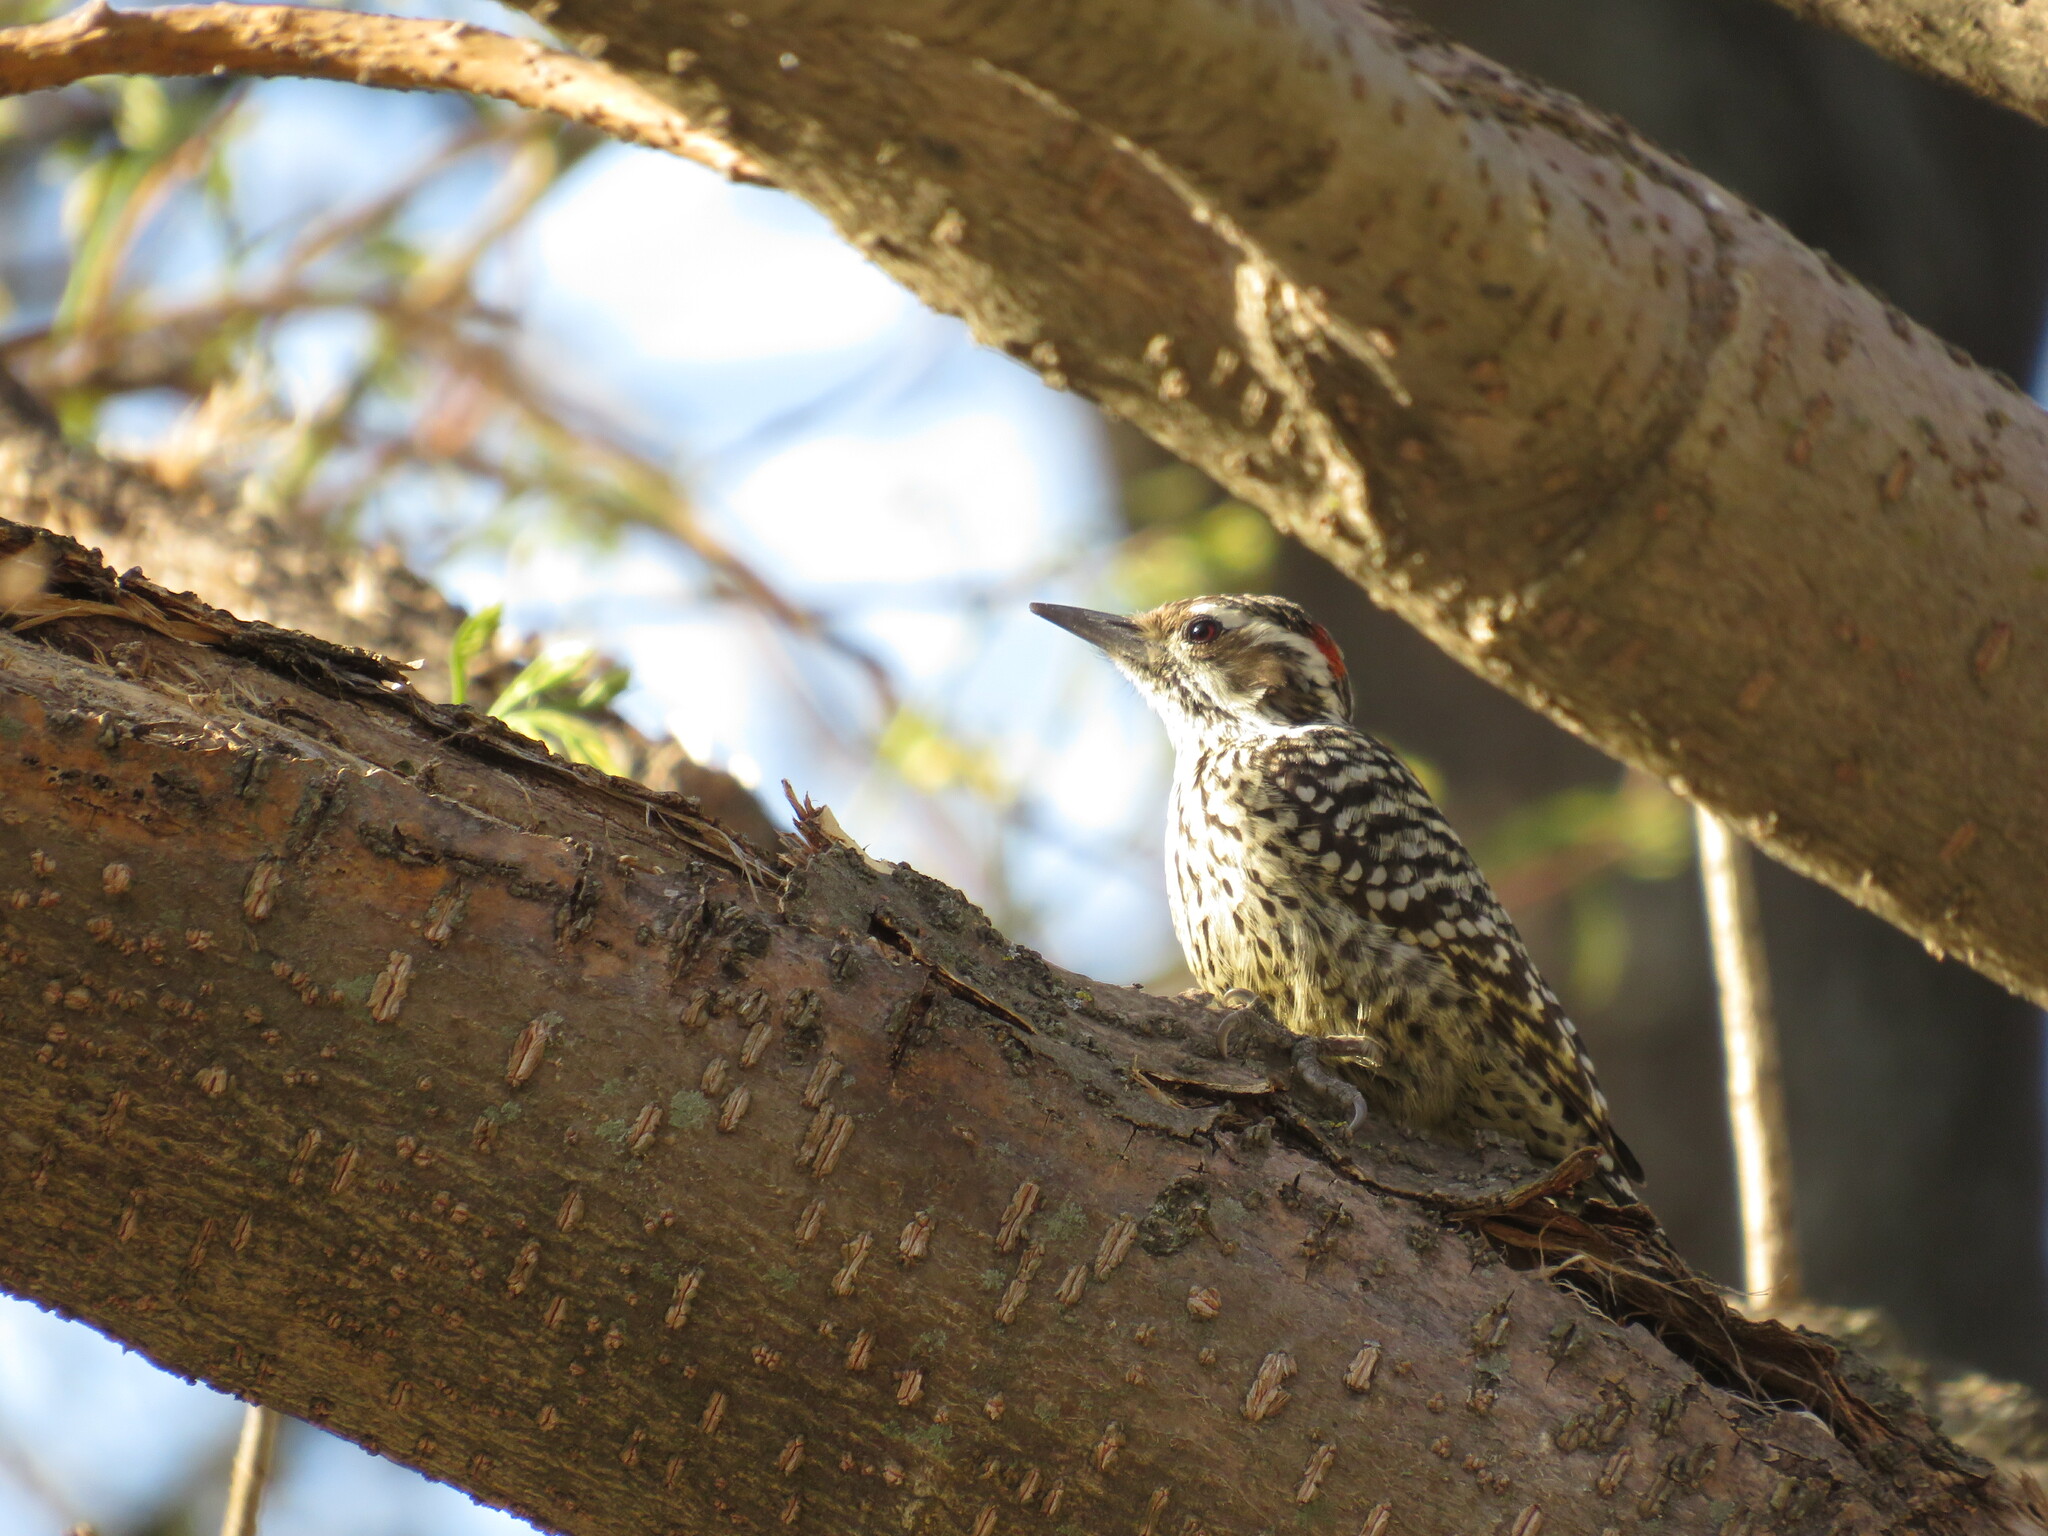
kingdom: Animalia
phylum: Chordata
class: Aves
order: Piciformes
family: Picidae
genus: Veniliornis
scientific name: Veniliornis mixtus
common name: Checkered woodpecker
